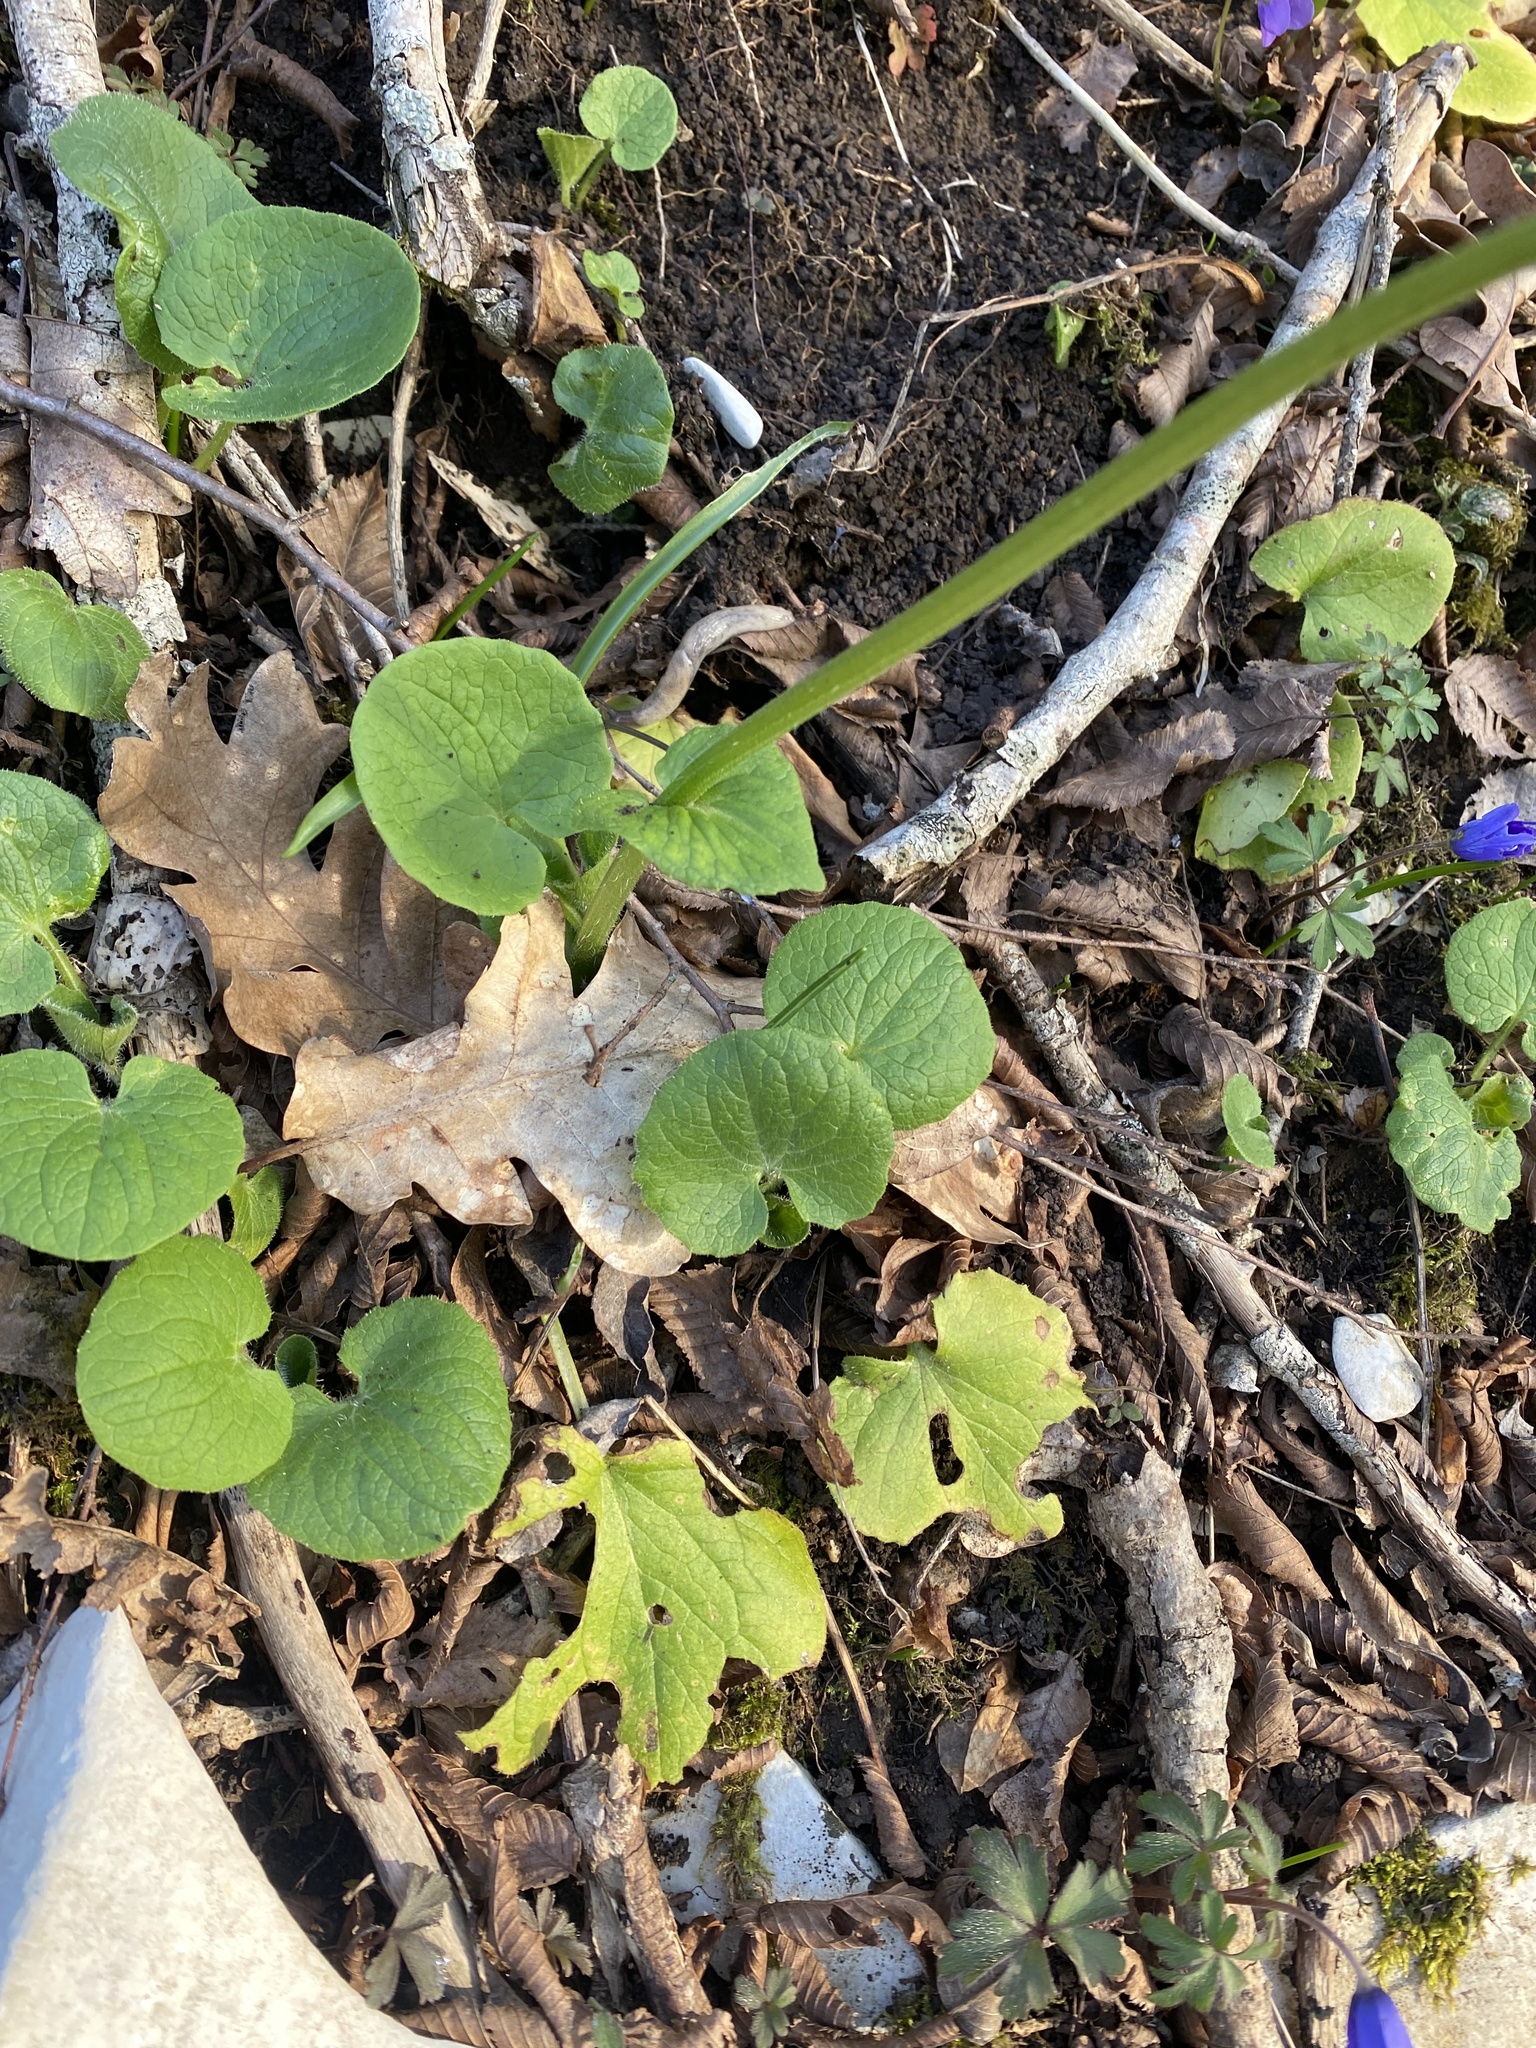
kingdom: Plantae
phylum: Tracheophyta
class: Magnoliopsida
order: Asterales
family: Asteraceae
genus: Doronicum
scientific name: Doronicum
